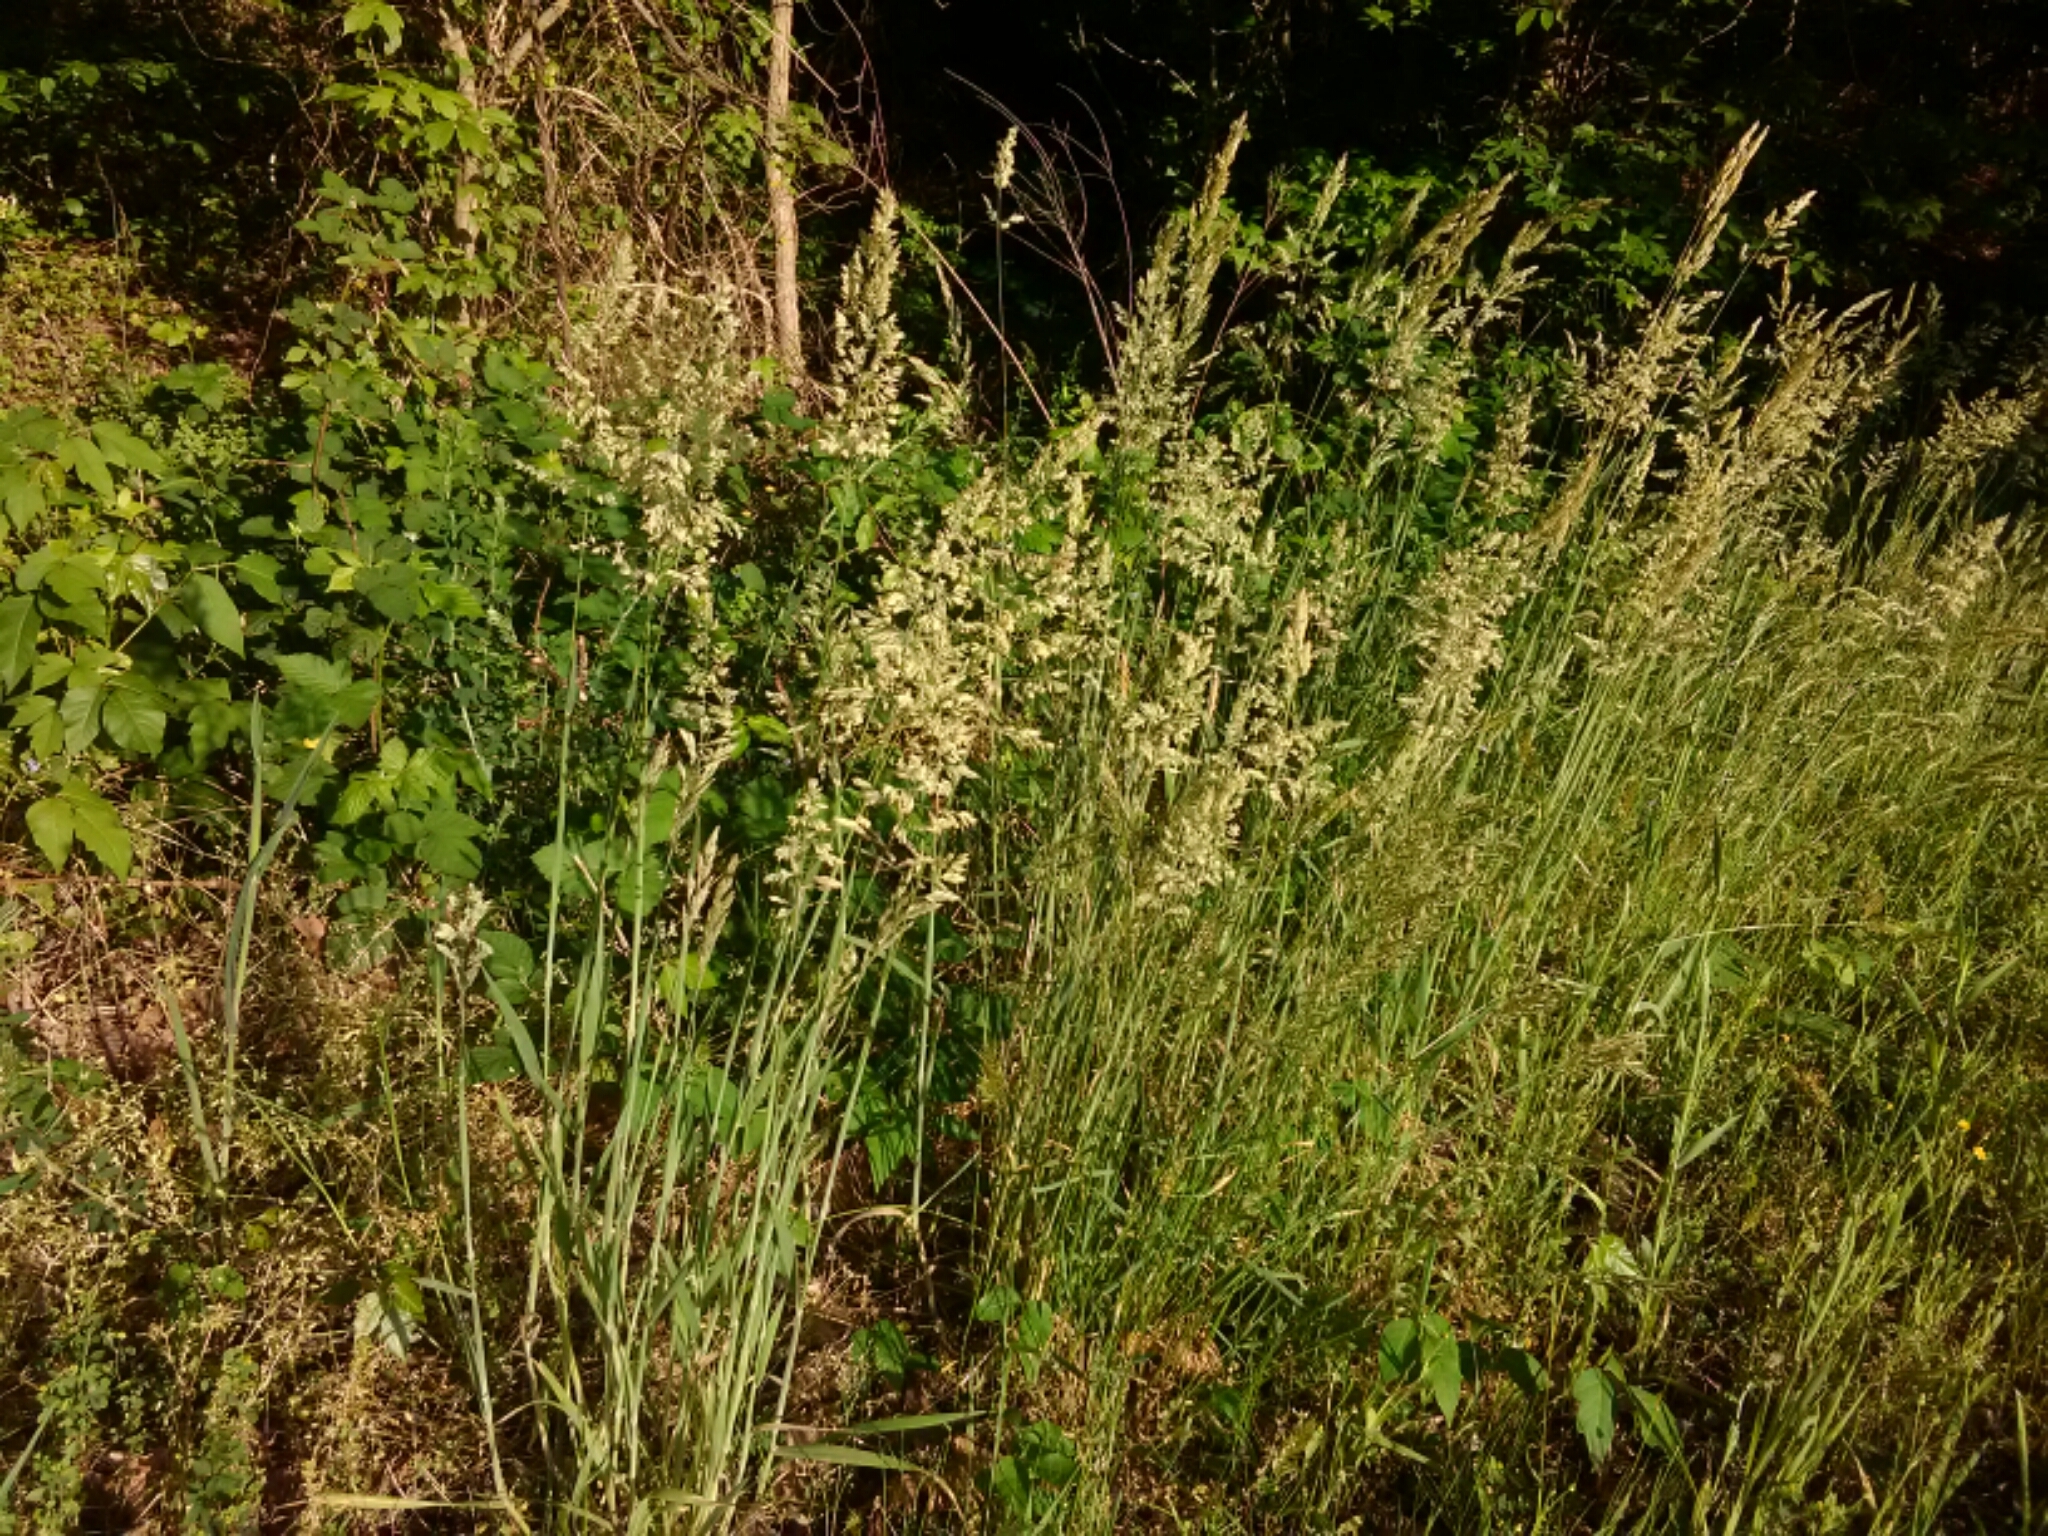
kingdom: Plantae
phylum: Tracheophyta
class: Liliopsida
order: Poales
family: Poaceae
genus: Holcus
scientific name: Holcus lanatus
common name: Yorkshire-fog
